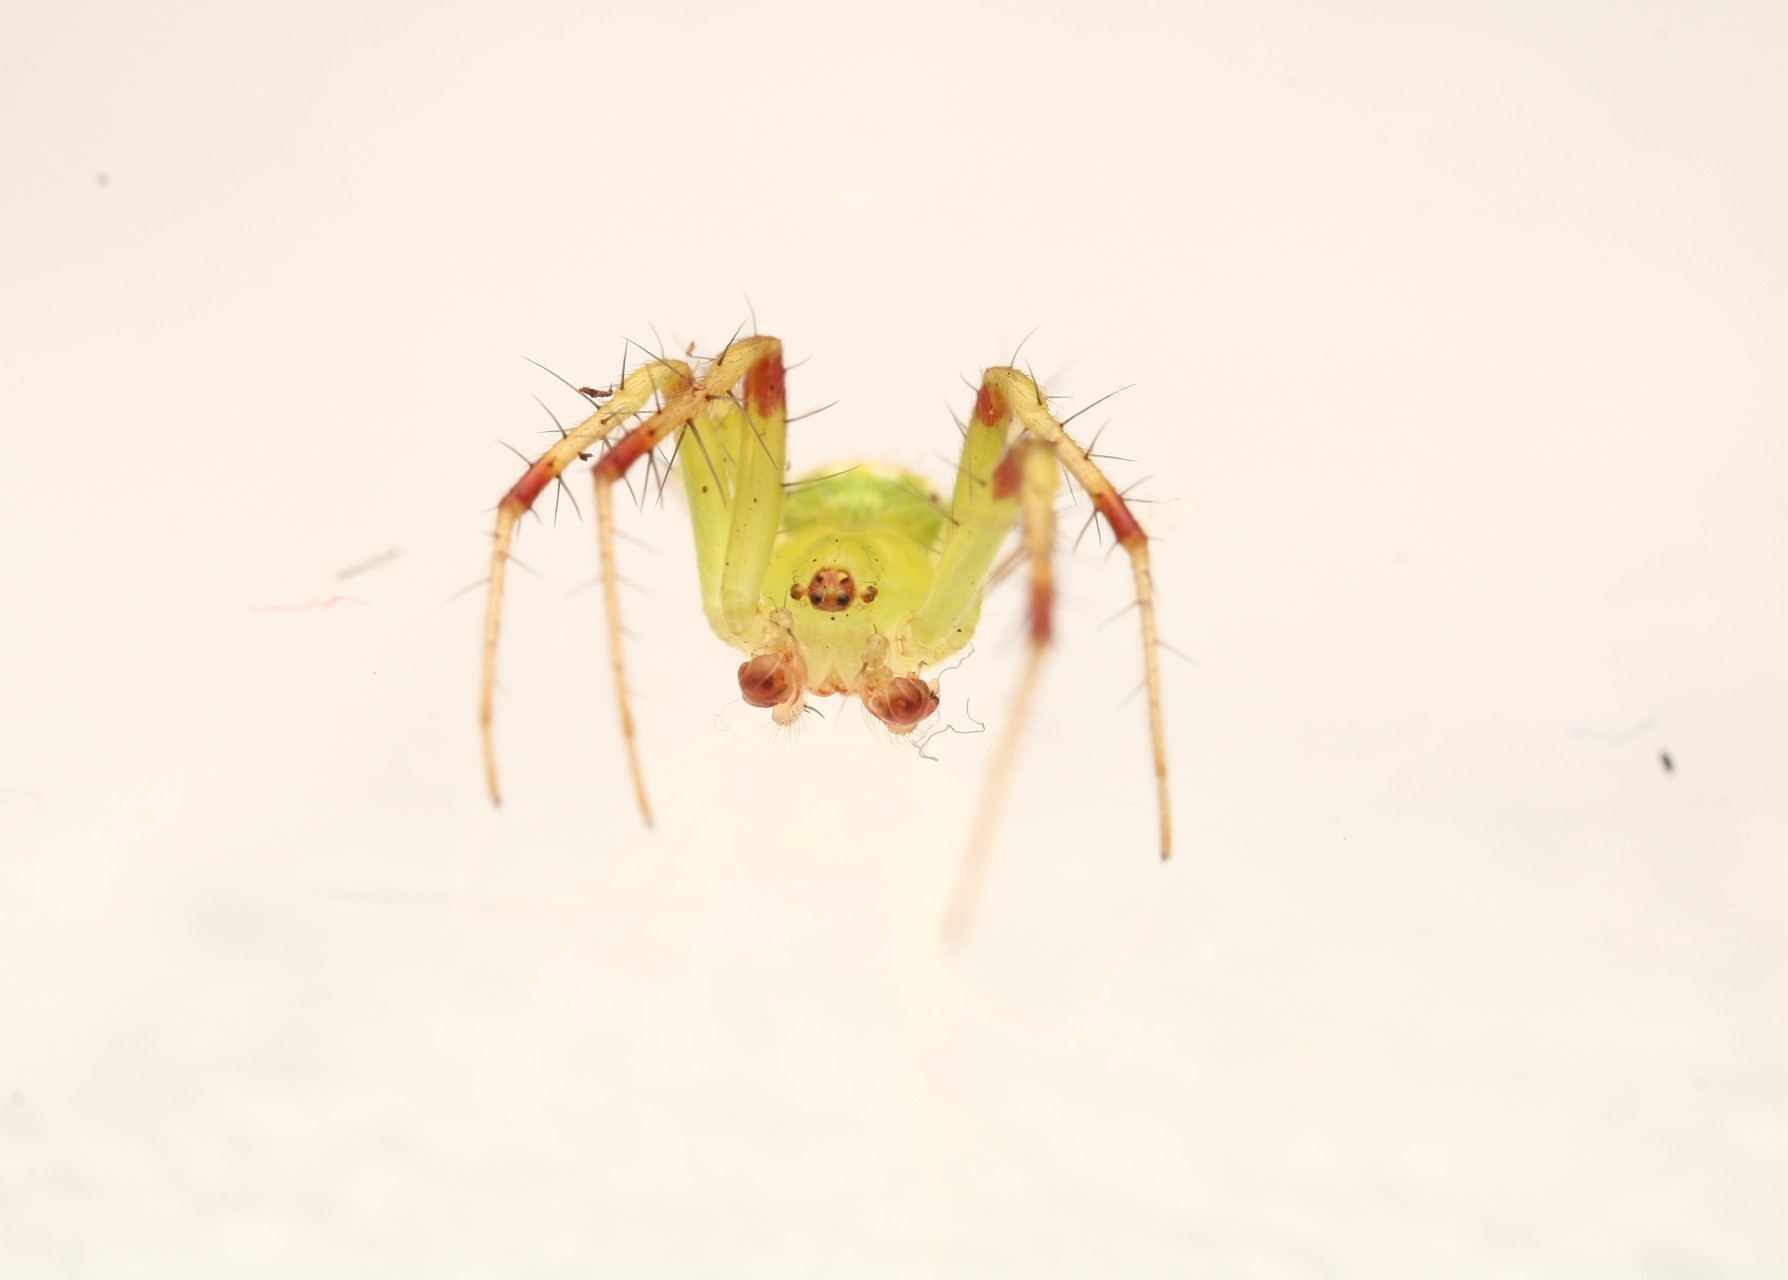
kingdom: Animalia
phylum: Arthropoda
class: Arachnida
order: Araneae
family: Araneidae
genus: Araneus
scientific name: Araneus cingulatus
